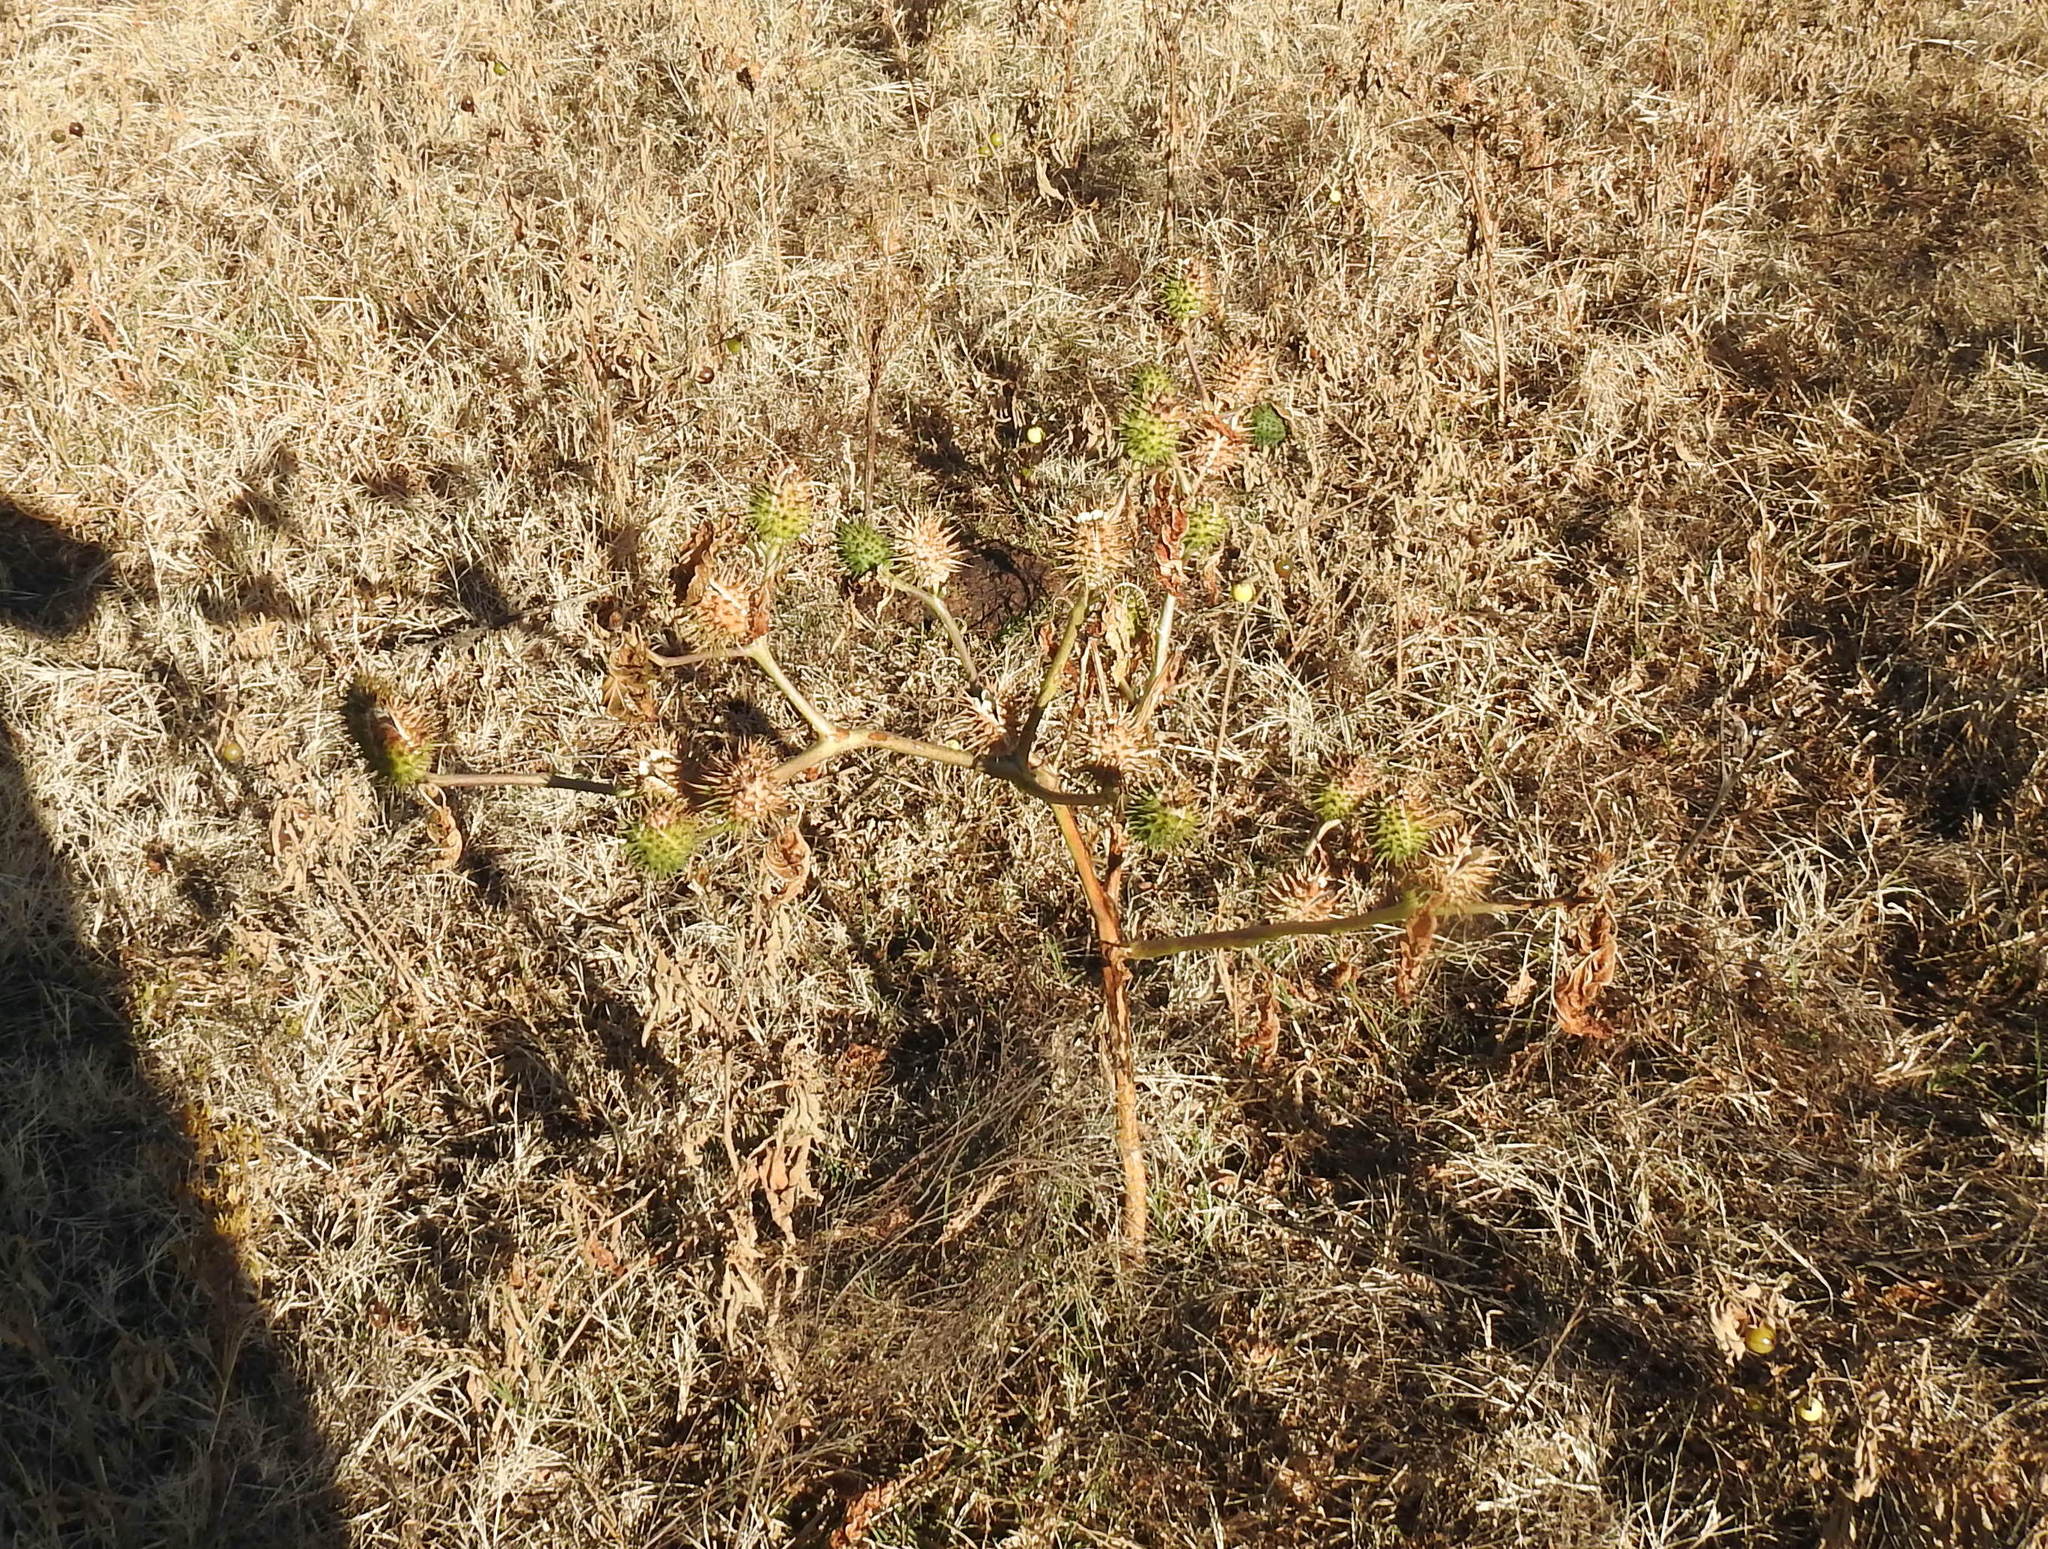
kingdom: Plantae
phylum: Tracheophyta
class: Magnoliopsida
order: Solanales
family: Solanaceae
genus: Datura
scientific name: Datura stramonium
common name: Thorn-apple
